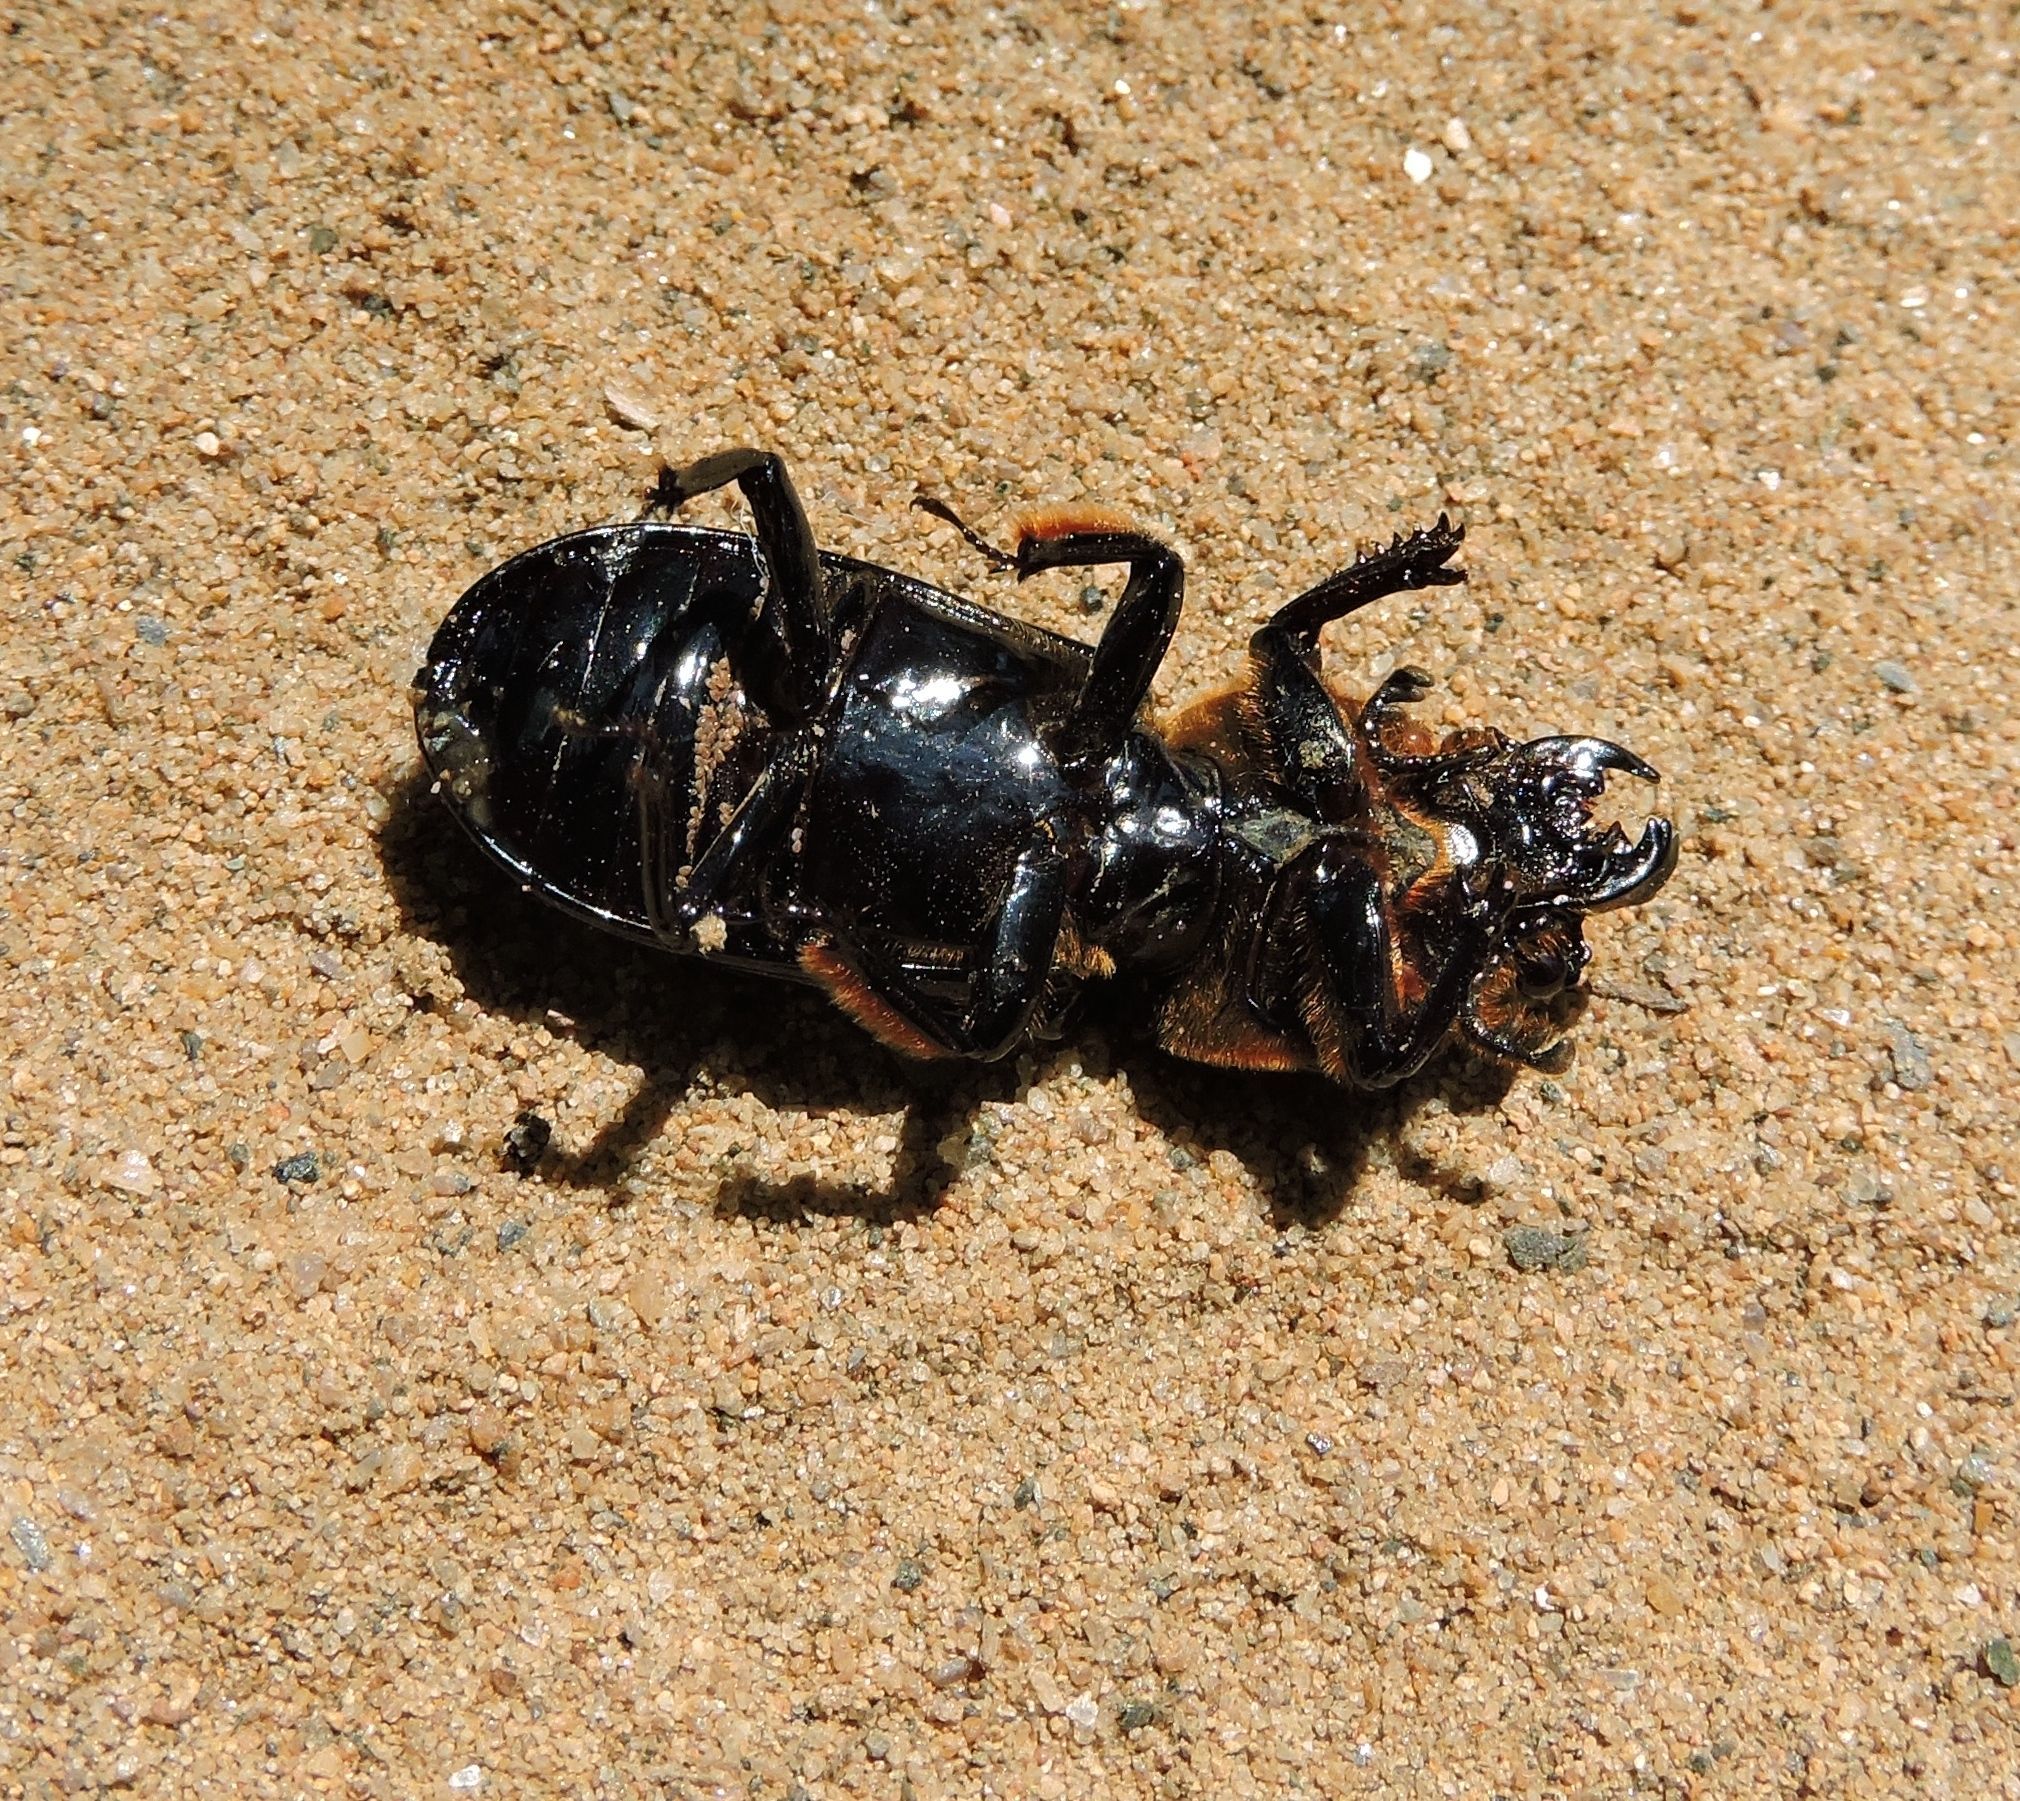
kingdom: Animalia
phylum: Arthropoda
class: Insecta
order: Coleoptera
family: Passalidae
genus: Odontotaenius
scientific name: Odontotaenius disjunctus
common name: Patent leather beetle
